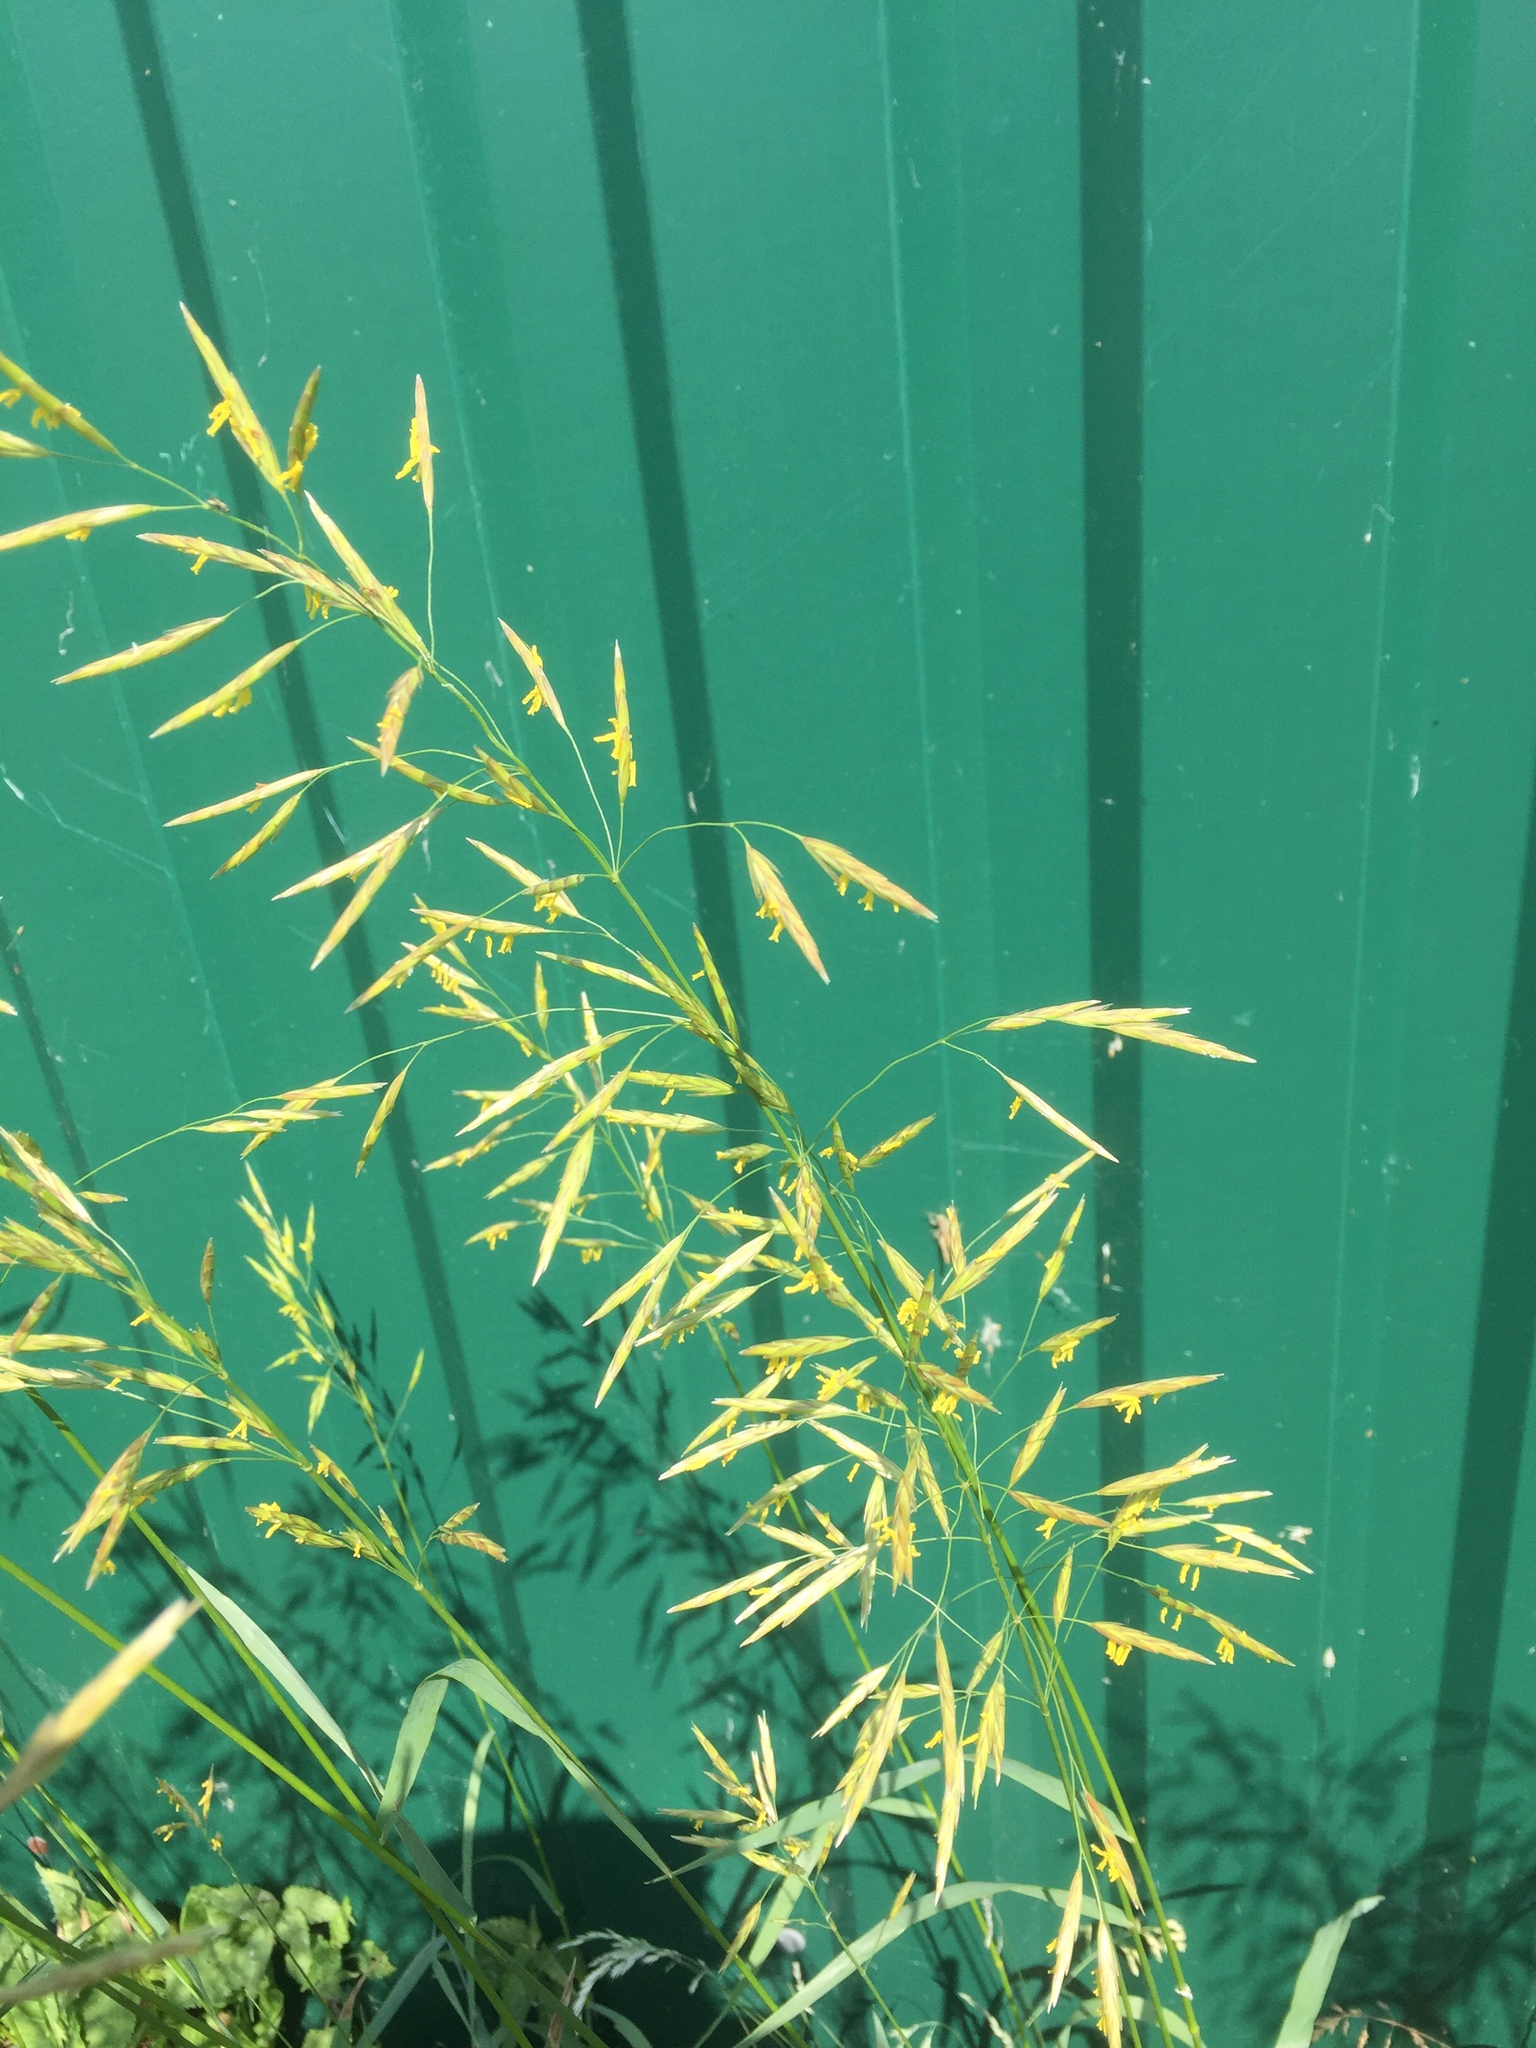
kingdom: Plantae
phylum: Tracheophyta
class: Liliopsida
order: Poales
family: Poaceae
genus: Bromus
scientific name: Bromus inermis
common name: Smooth brome
